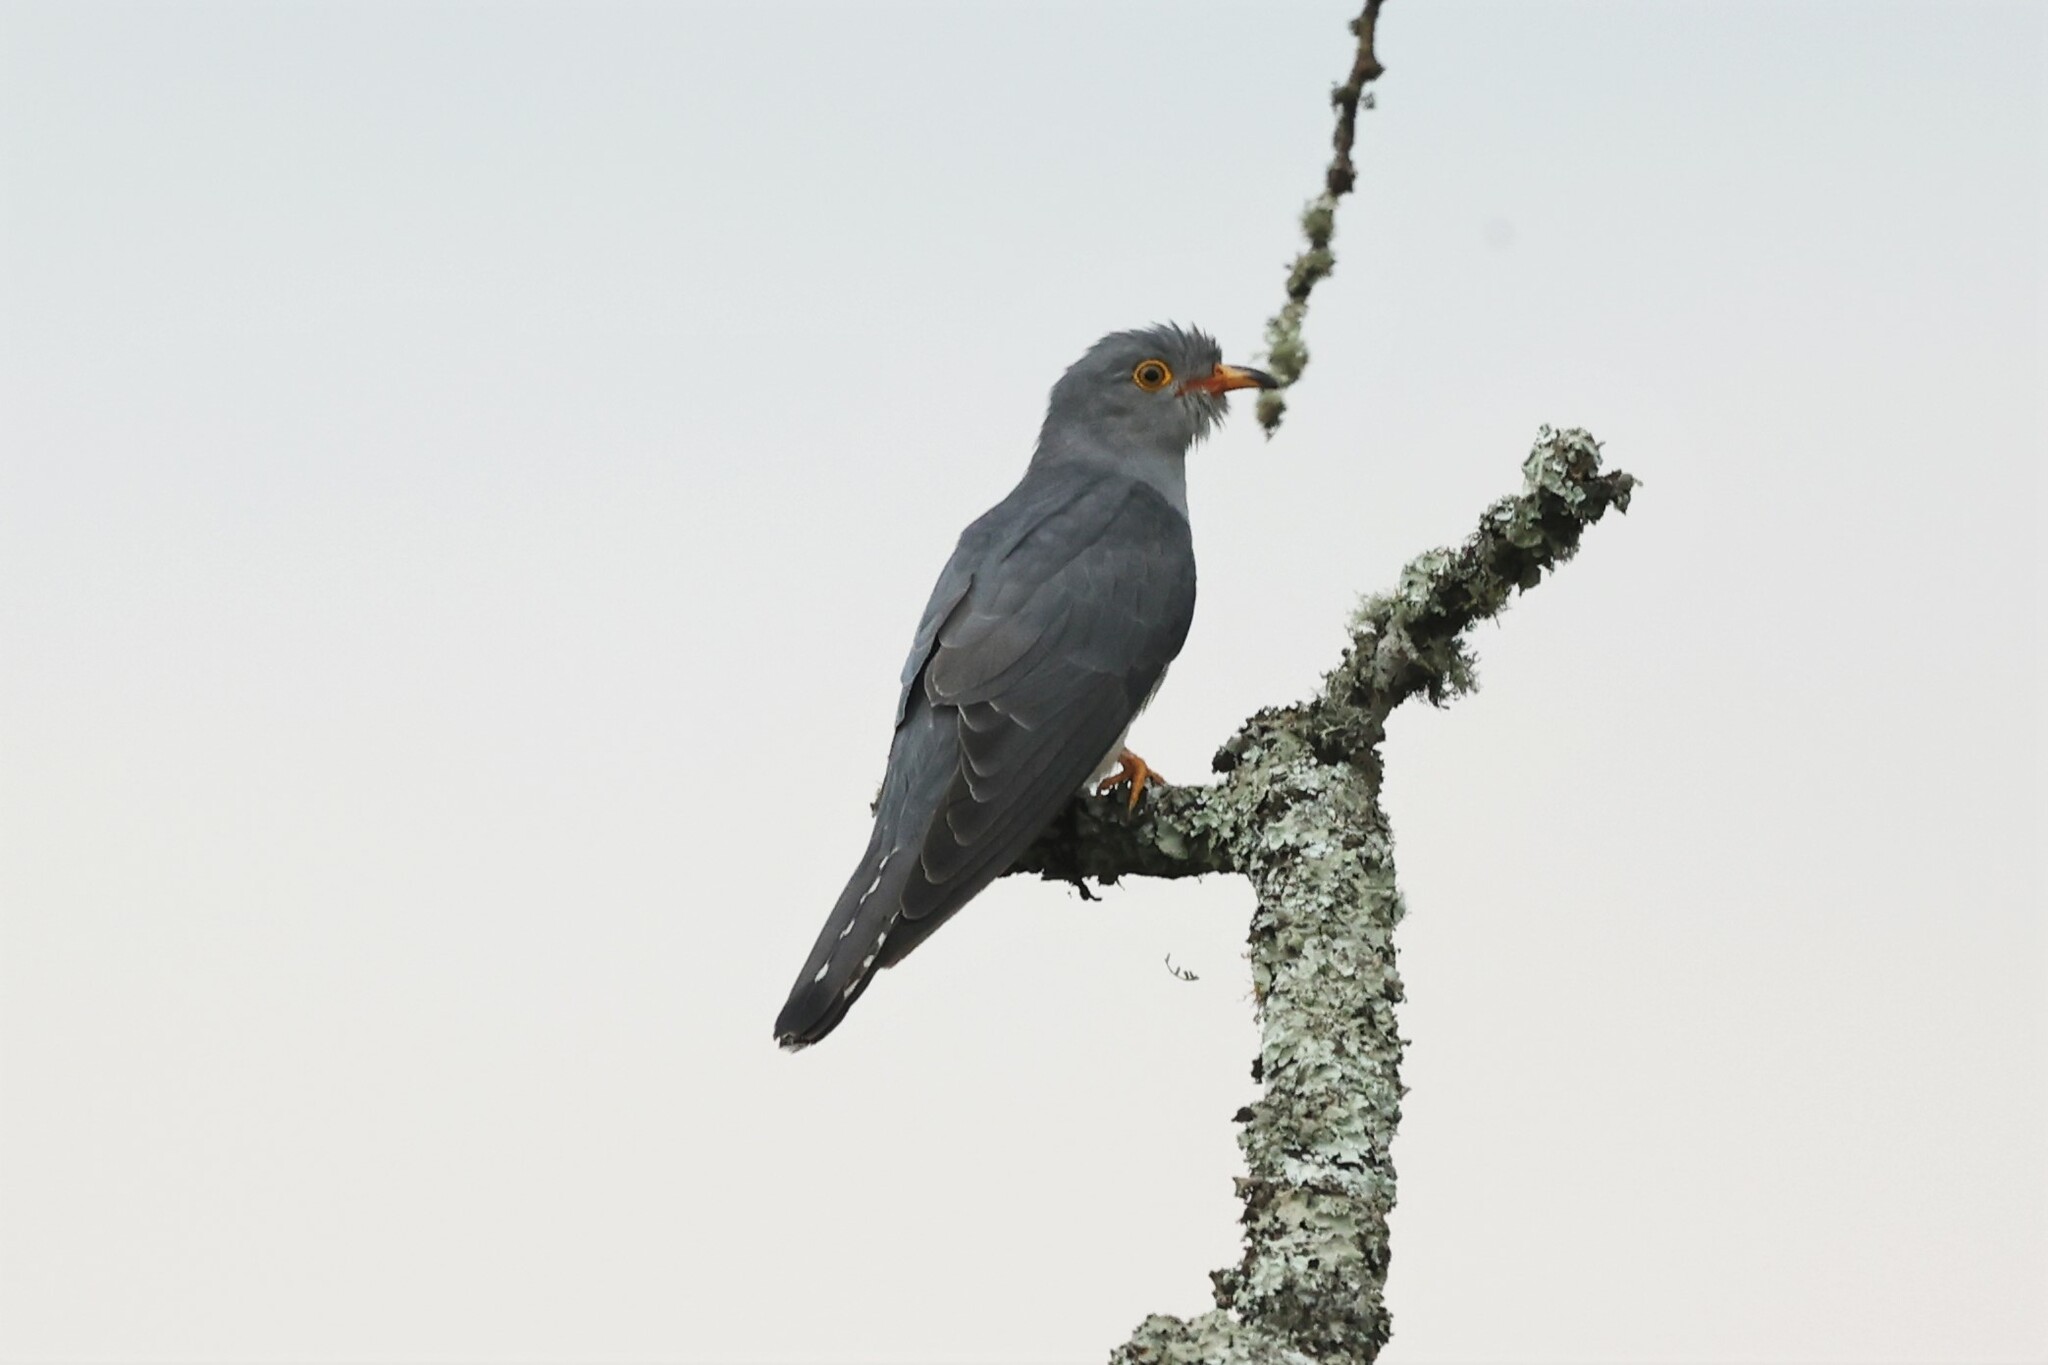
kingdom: Animalia
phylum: Chordata
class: Aves
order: Cuculiformes
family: Cuculidae
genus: Cuculus
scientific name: Cuculus gularis
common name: African cuckoo
